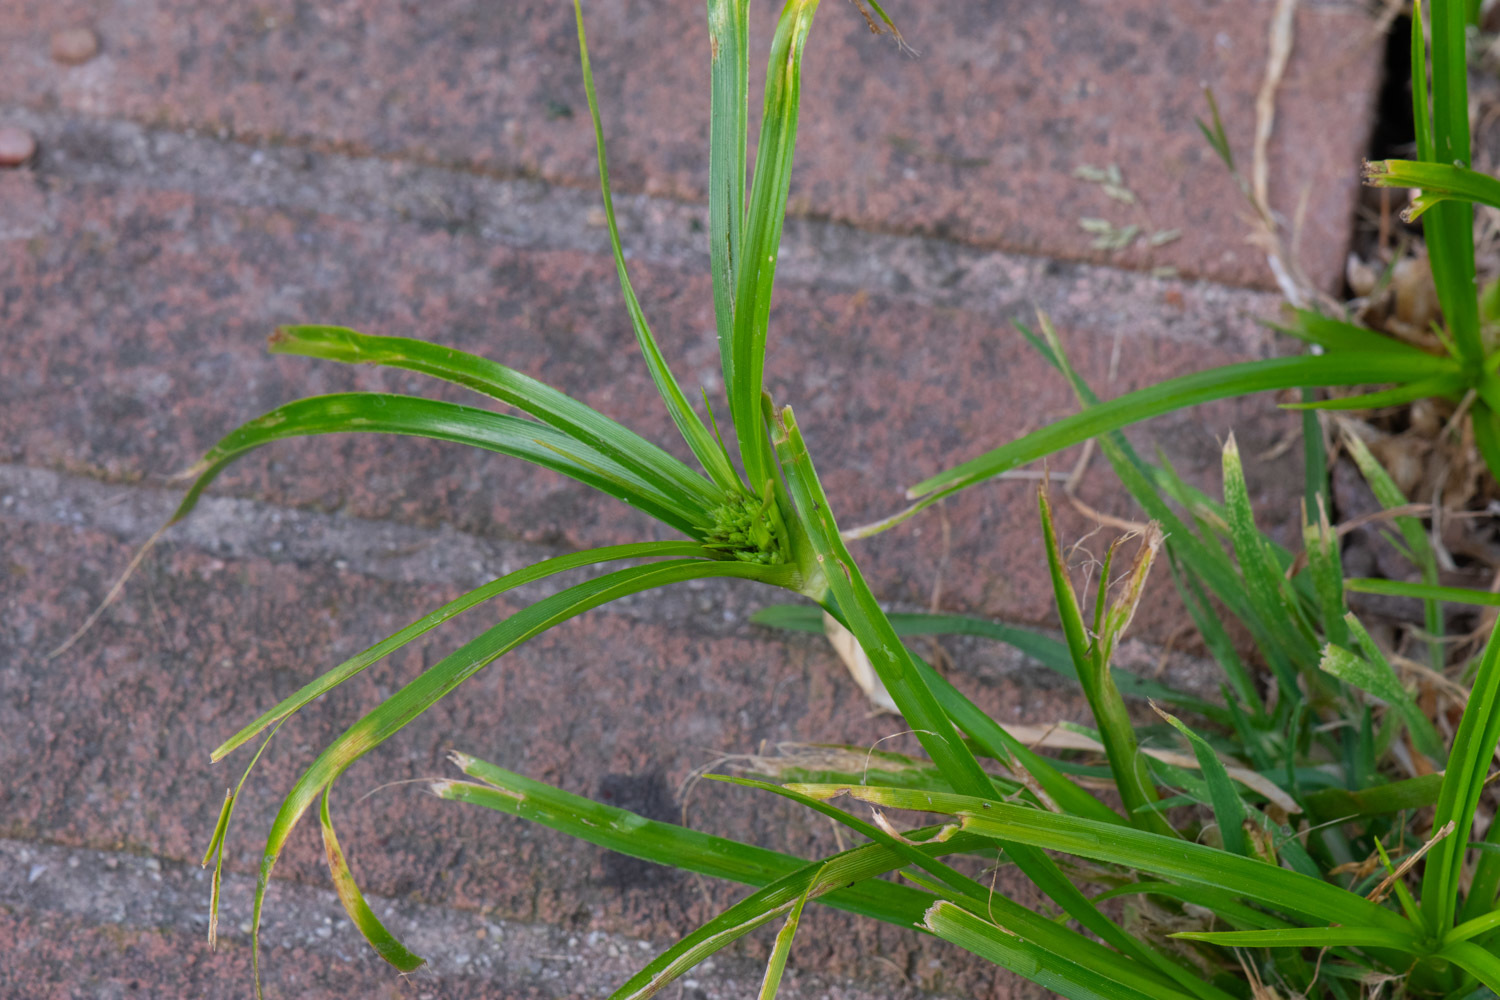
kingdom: Plantae
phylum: Tracheophyta
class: Liliopsida
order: Poales
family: Cyperaceae
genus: Cyperus
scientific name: Cyperus eragrostis
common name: Tall flatsedge
